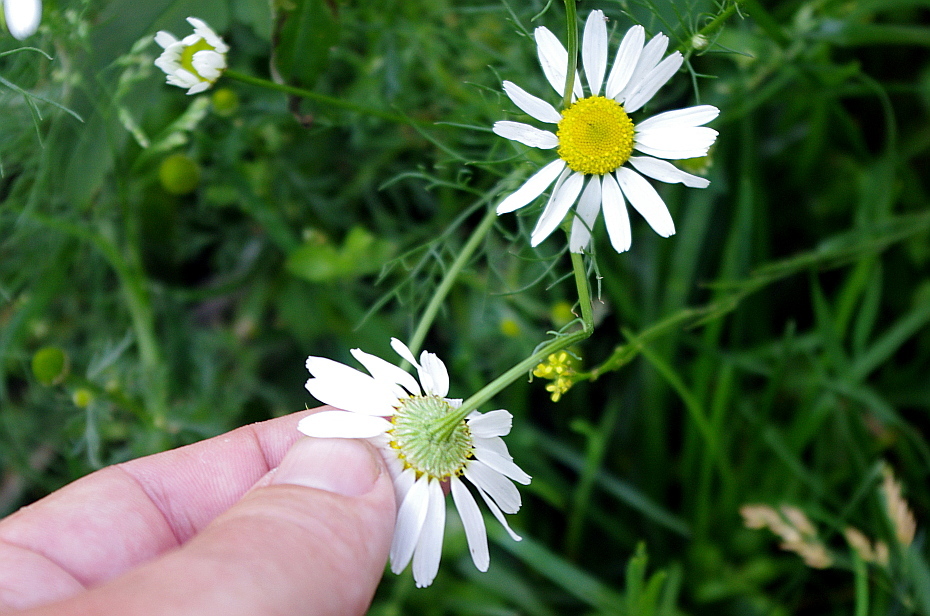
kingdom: Plantae
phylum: Tracheophyta
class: Magnoliopsida
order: Asterales
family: Asteraceae
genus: Tripleurospermum
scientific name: Tripleurospermum inodorum
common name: Scentless mayweed
